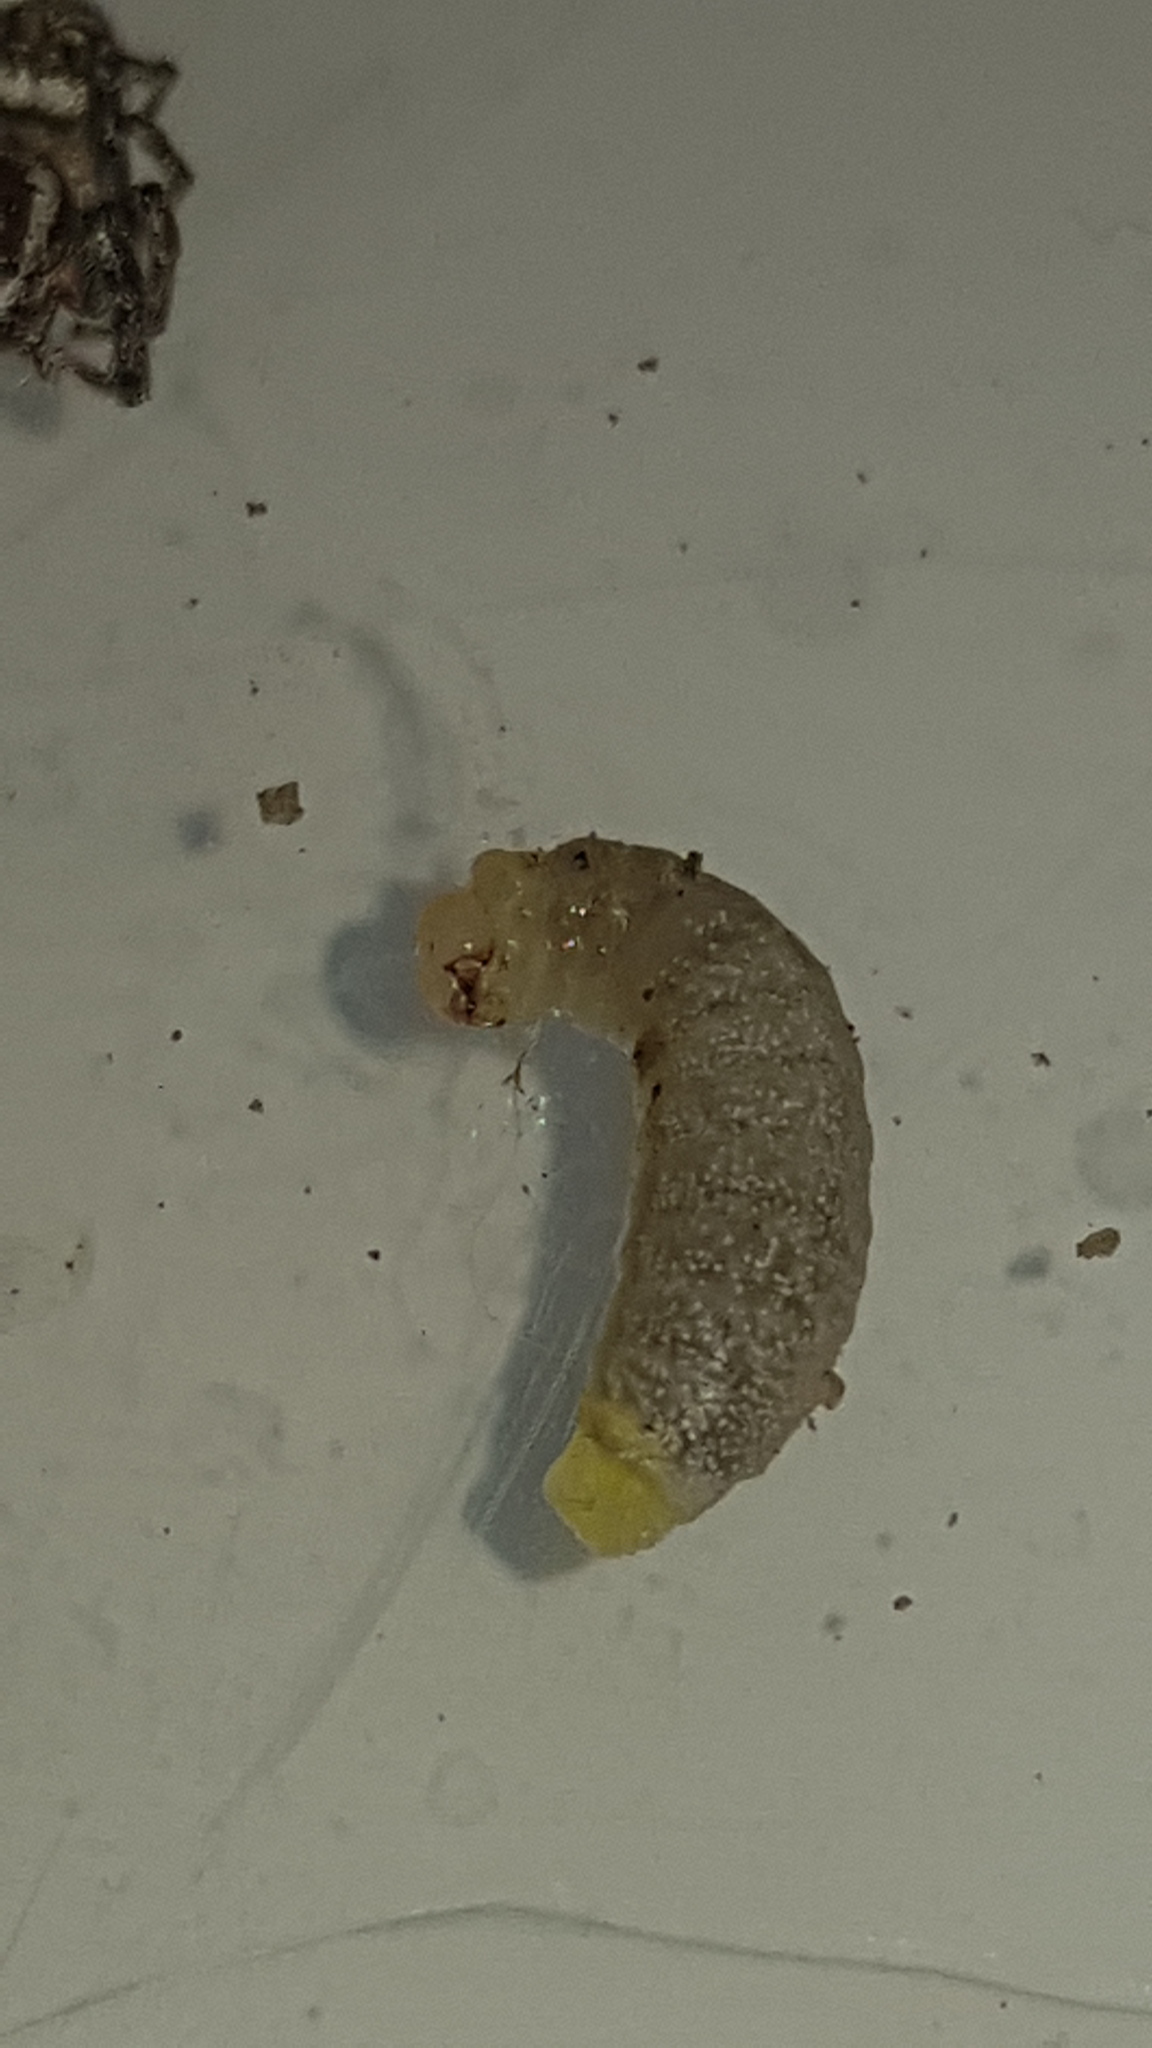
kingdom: Animalia
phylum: Arthropoda
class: Insecta
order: Hymenoptera
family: Sphecidae
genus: Sceliphron
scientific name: Sceliphron formosum
